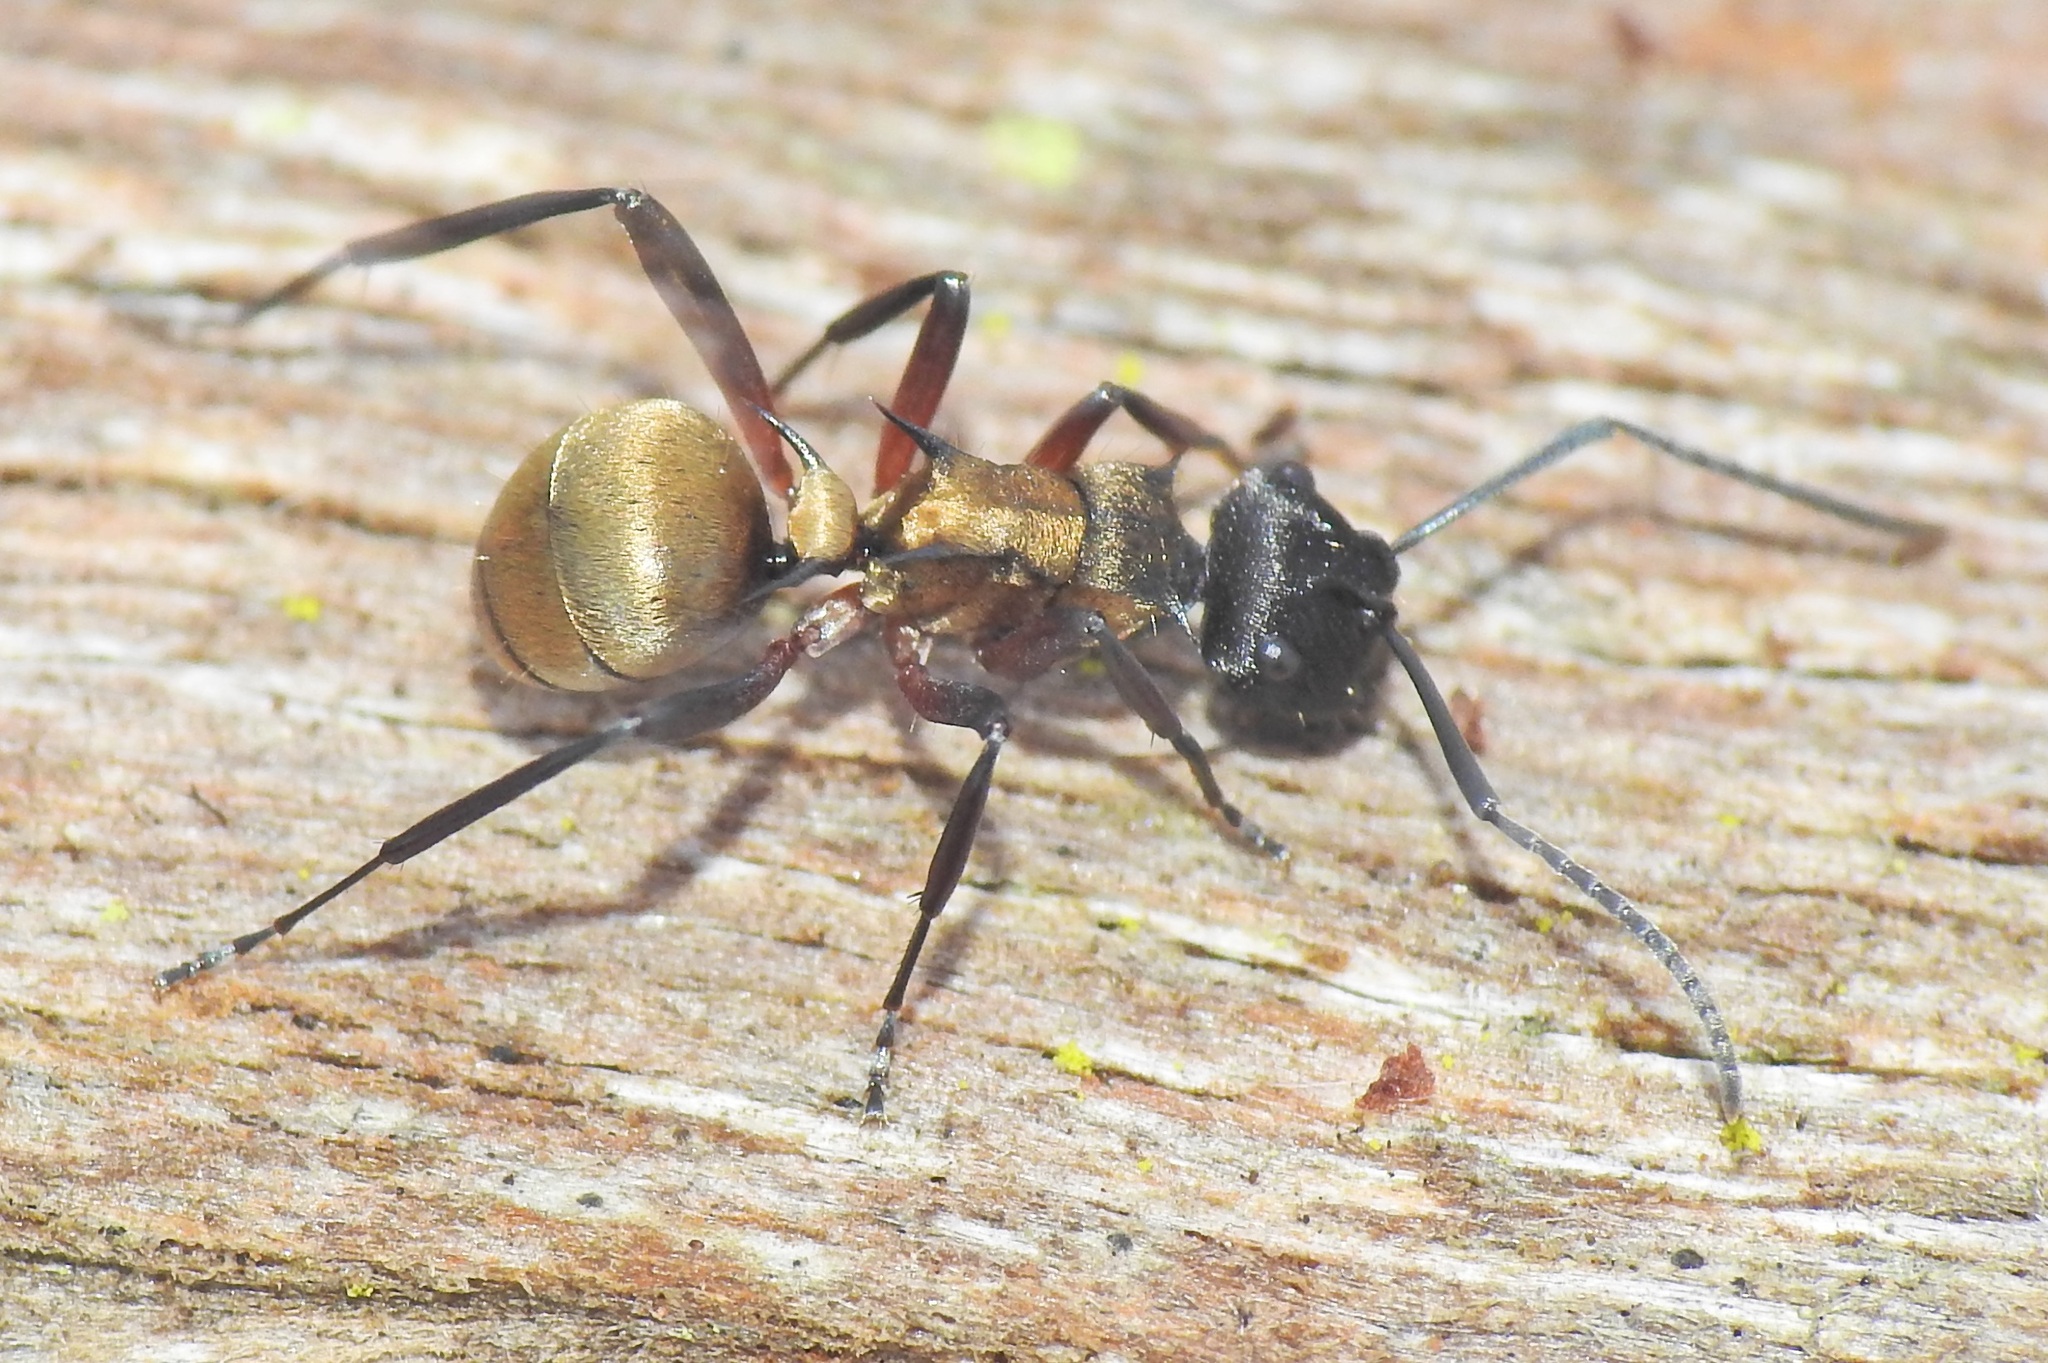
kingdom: Animalia
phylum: Arthropoda
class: Insecta
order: Hymenoptera
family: Formicidae
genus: Polyrhachis
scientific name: Polyrhachis rufifemur
